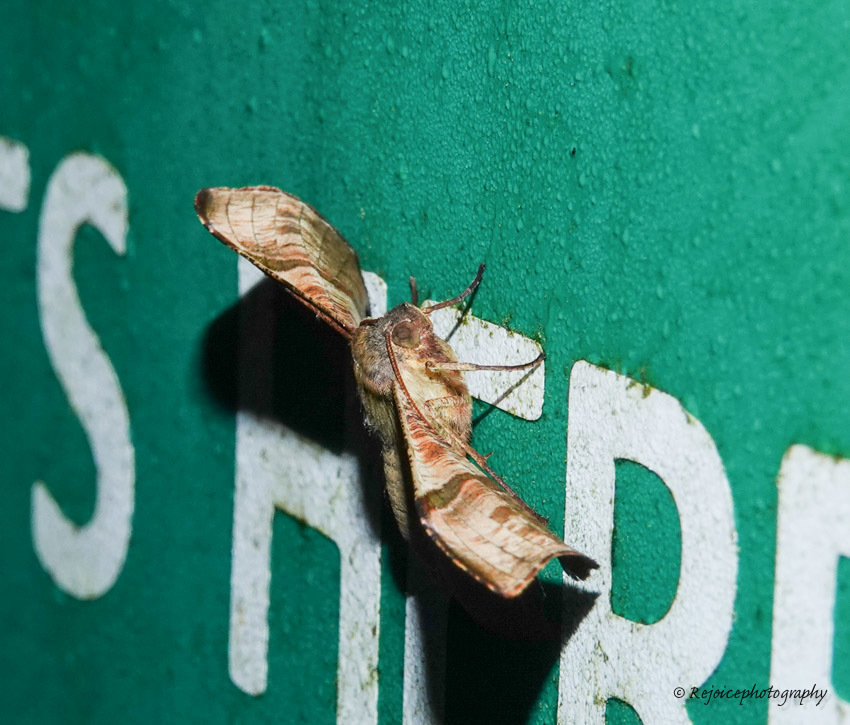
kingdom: Animalia
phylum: Arthropoda
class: Insecta
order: Lepidoptera
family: Geometridae
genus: Fascellina
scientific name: Fascellina chromataria
